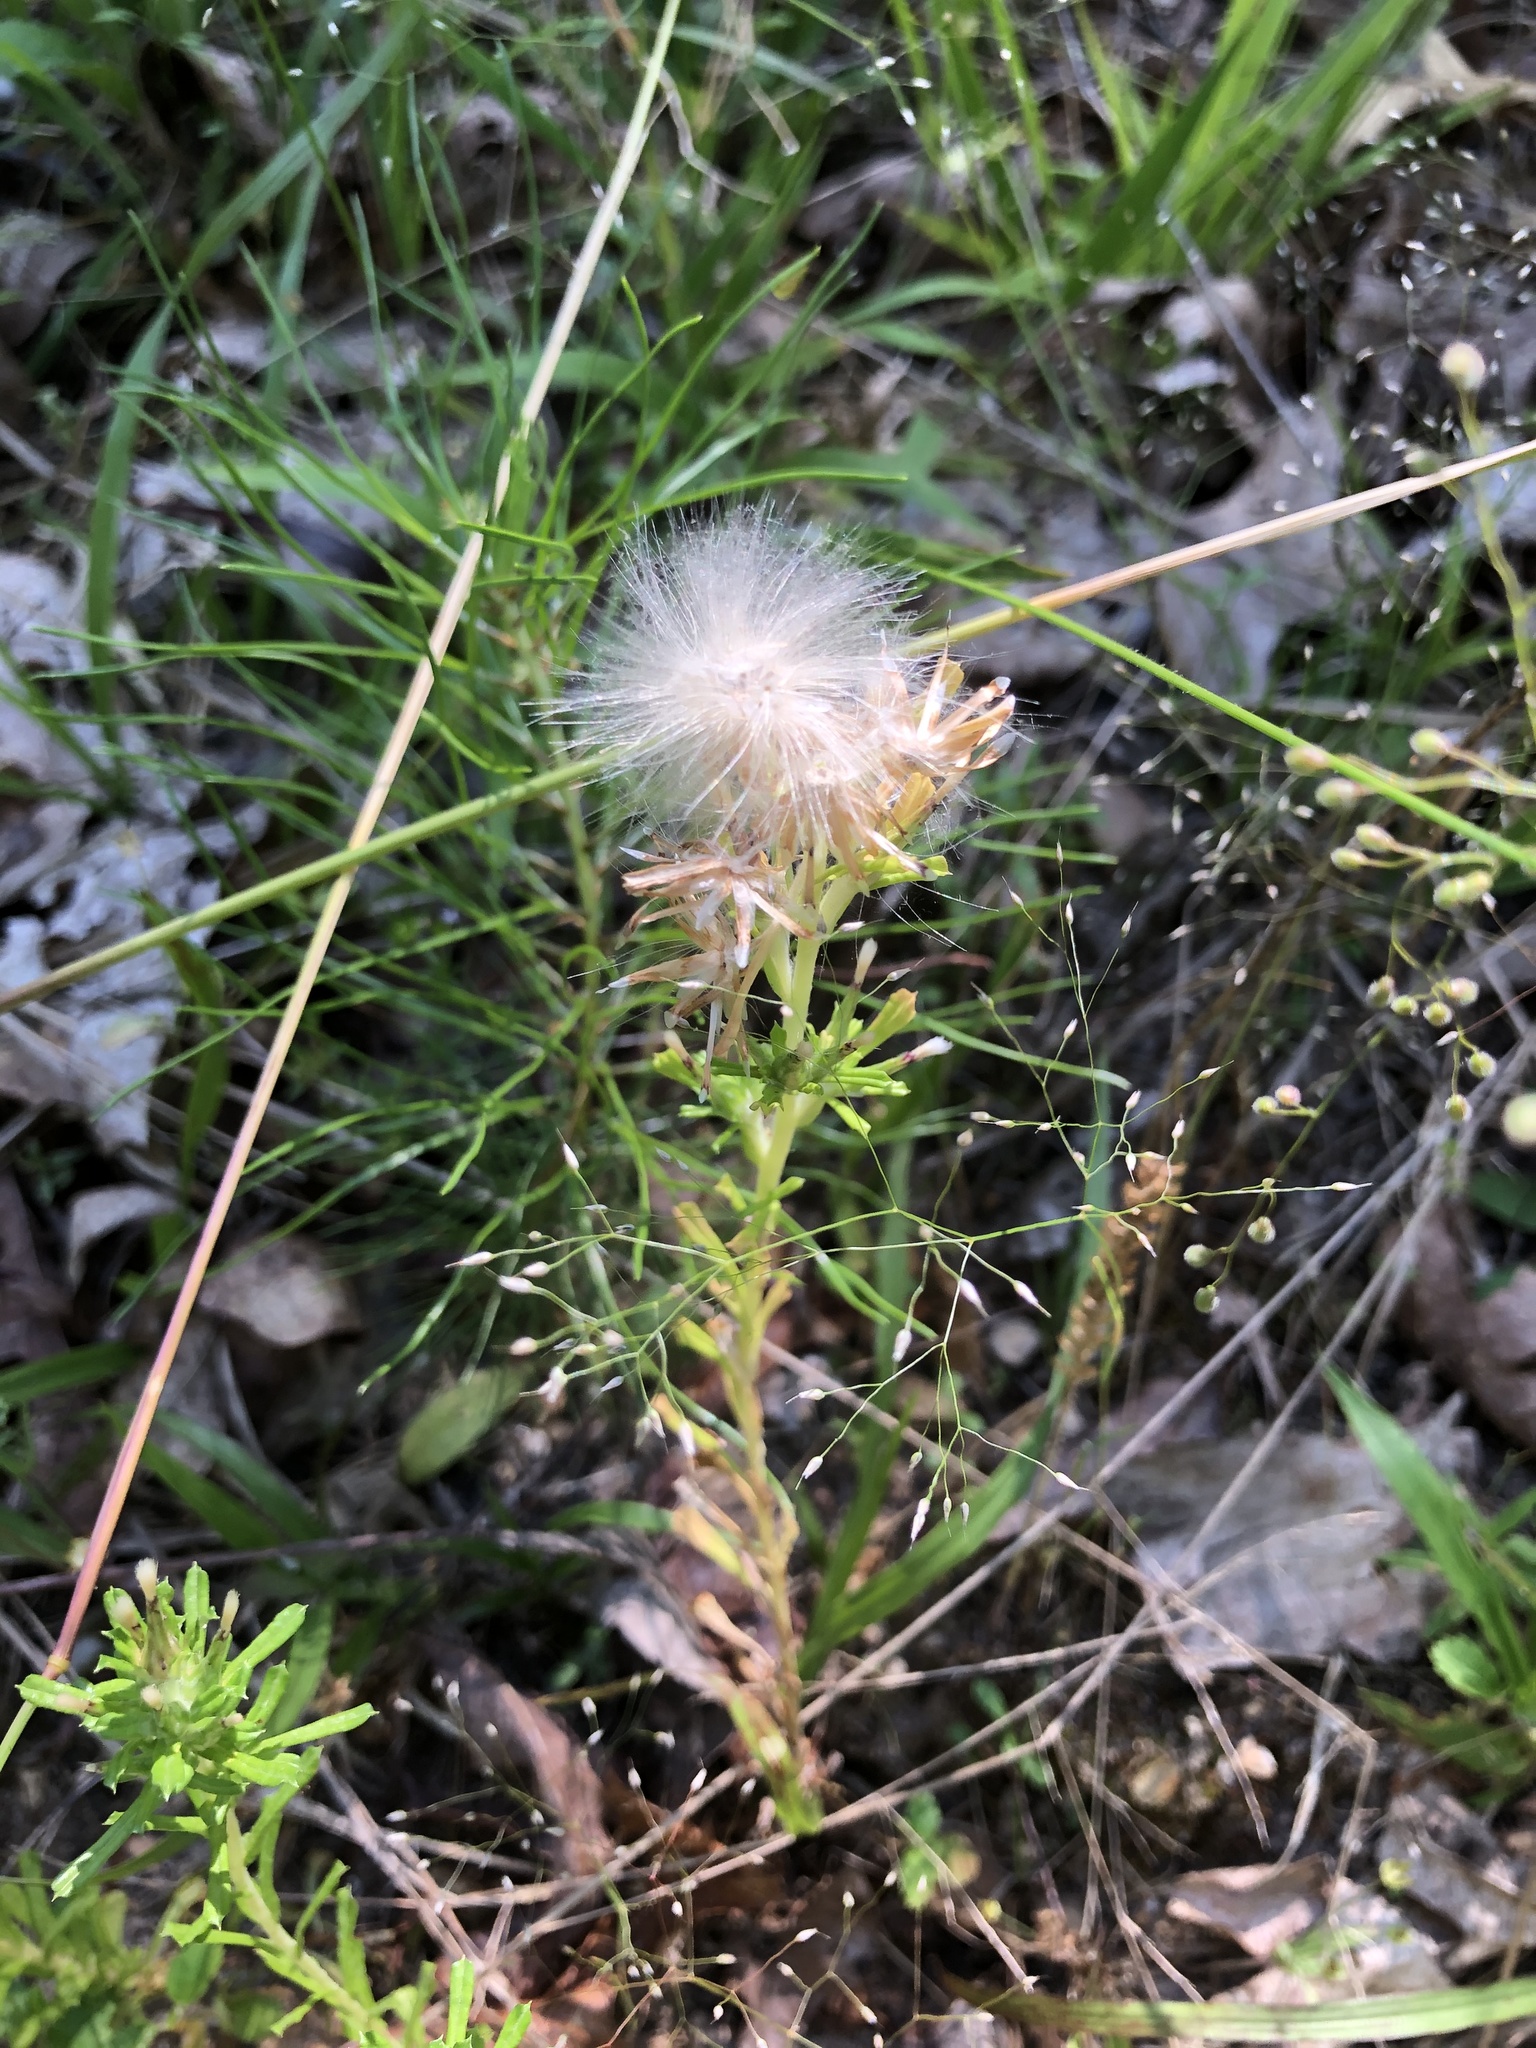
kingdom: Plantae
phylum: Tracheophyta
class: Magnoliopsida
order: Asterales
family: Asteraceae
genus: Facelis
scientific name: Facelis retusa
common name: Annual trampweed
